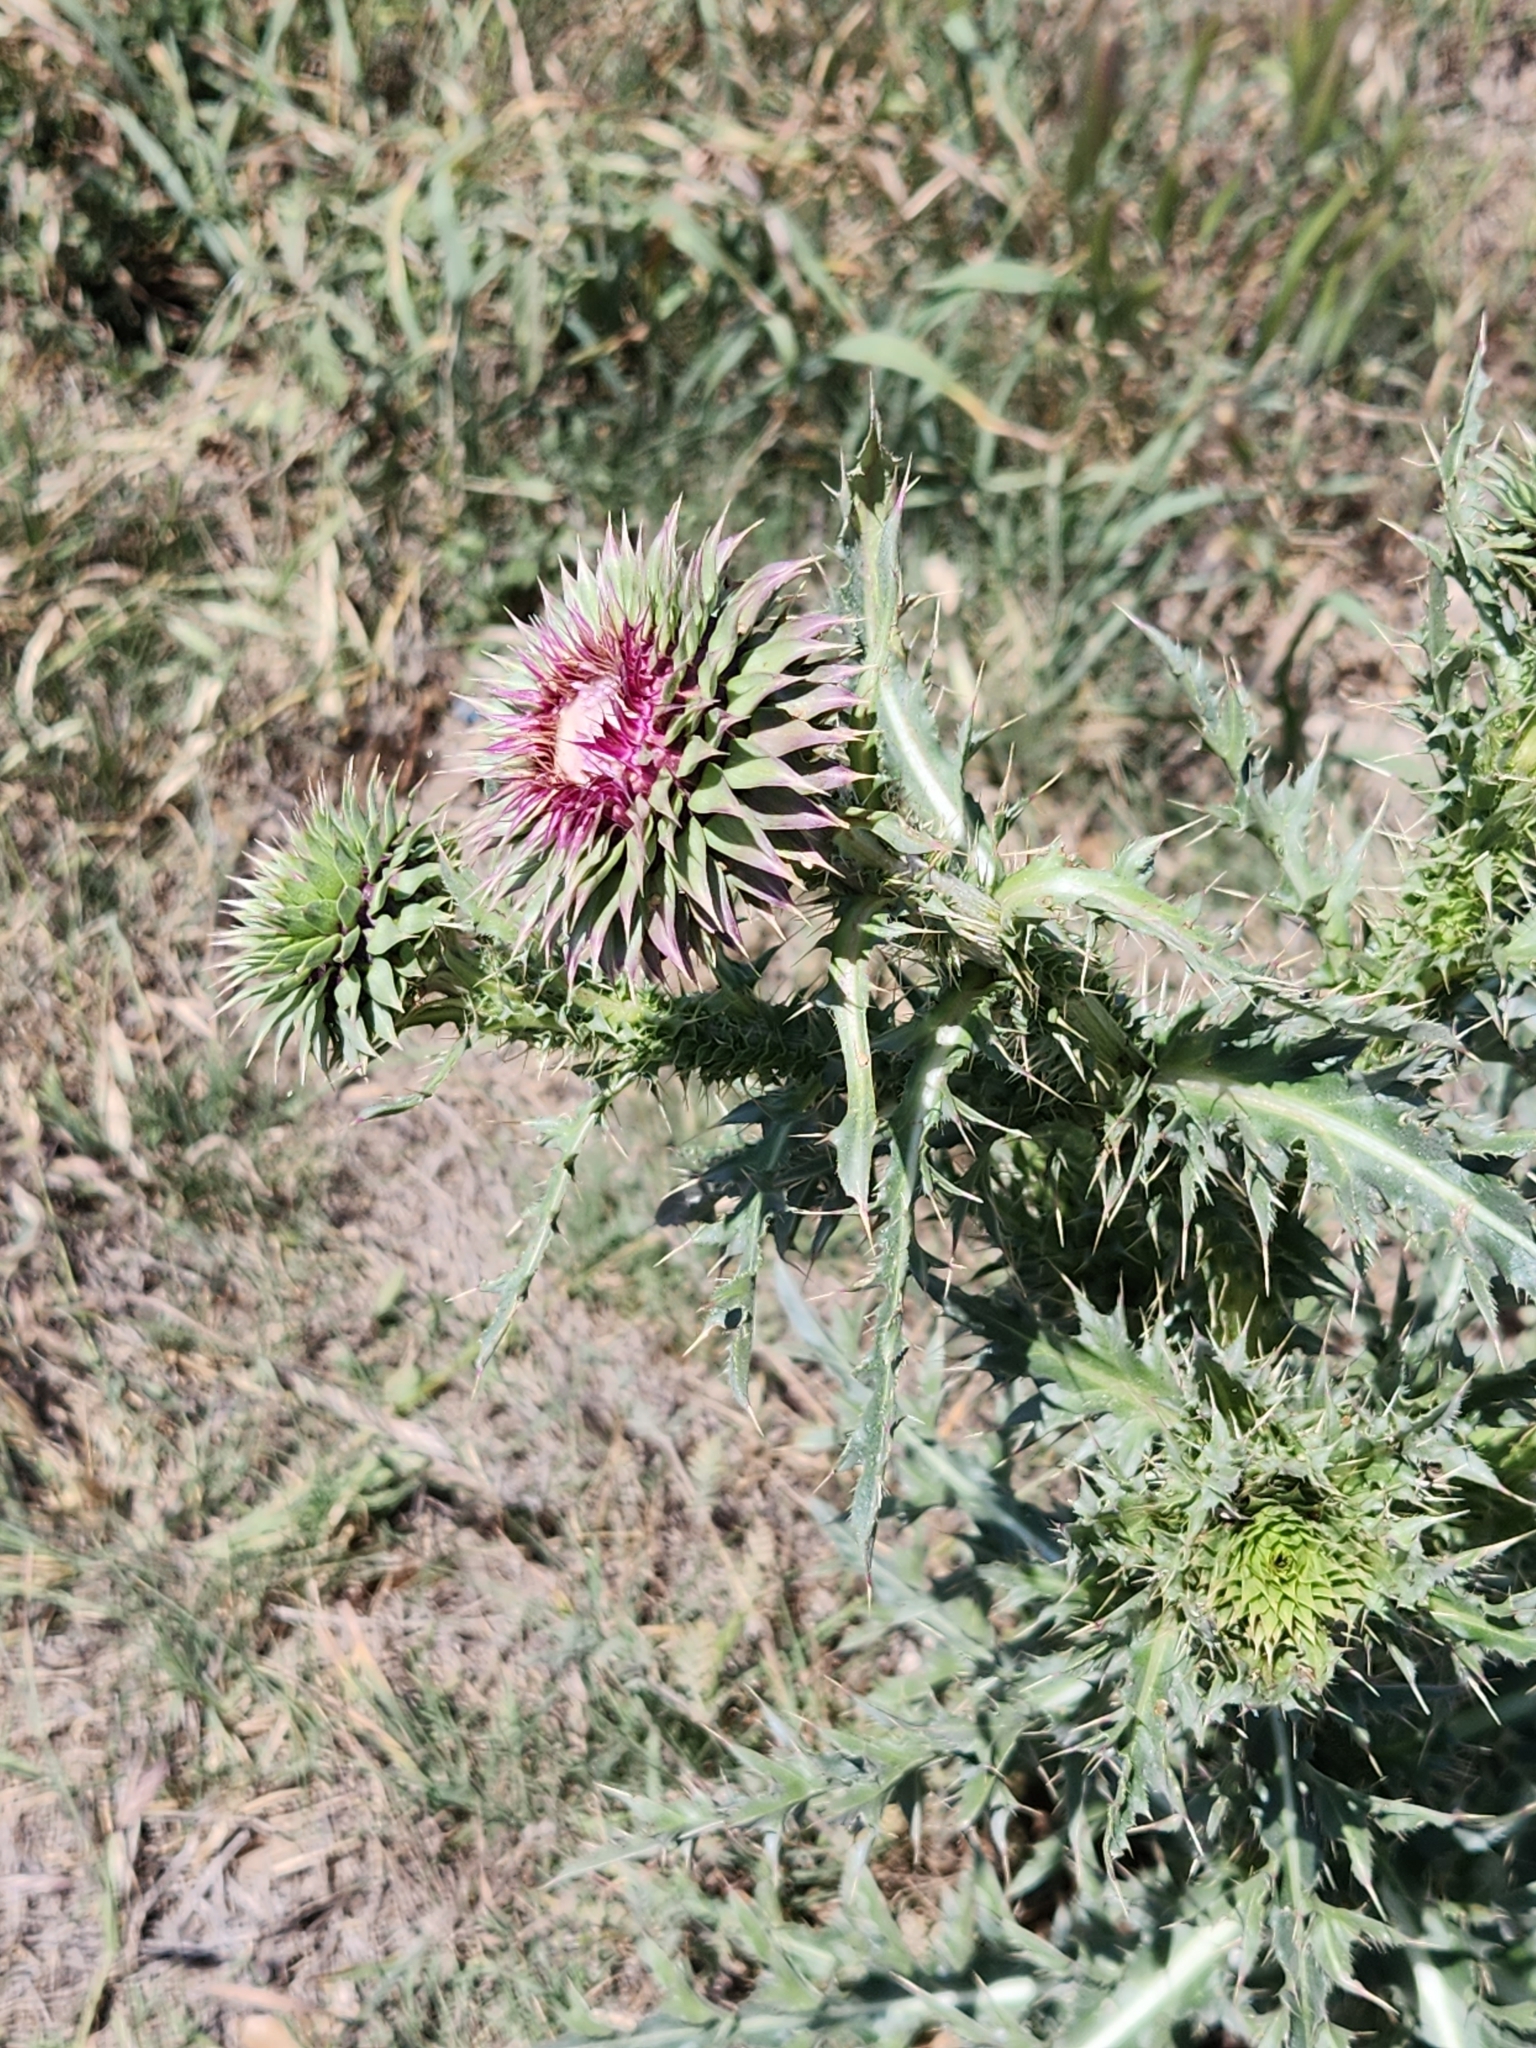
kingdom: Plantae
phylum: Tracheophyta
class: Magnoliopsida
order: Asterales
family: Asteraceae
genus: Carduus
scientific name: Carduus nutans
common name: Musk thistle
